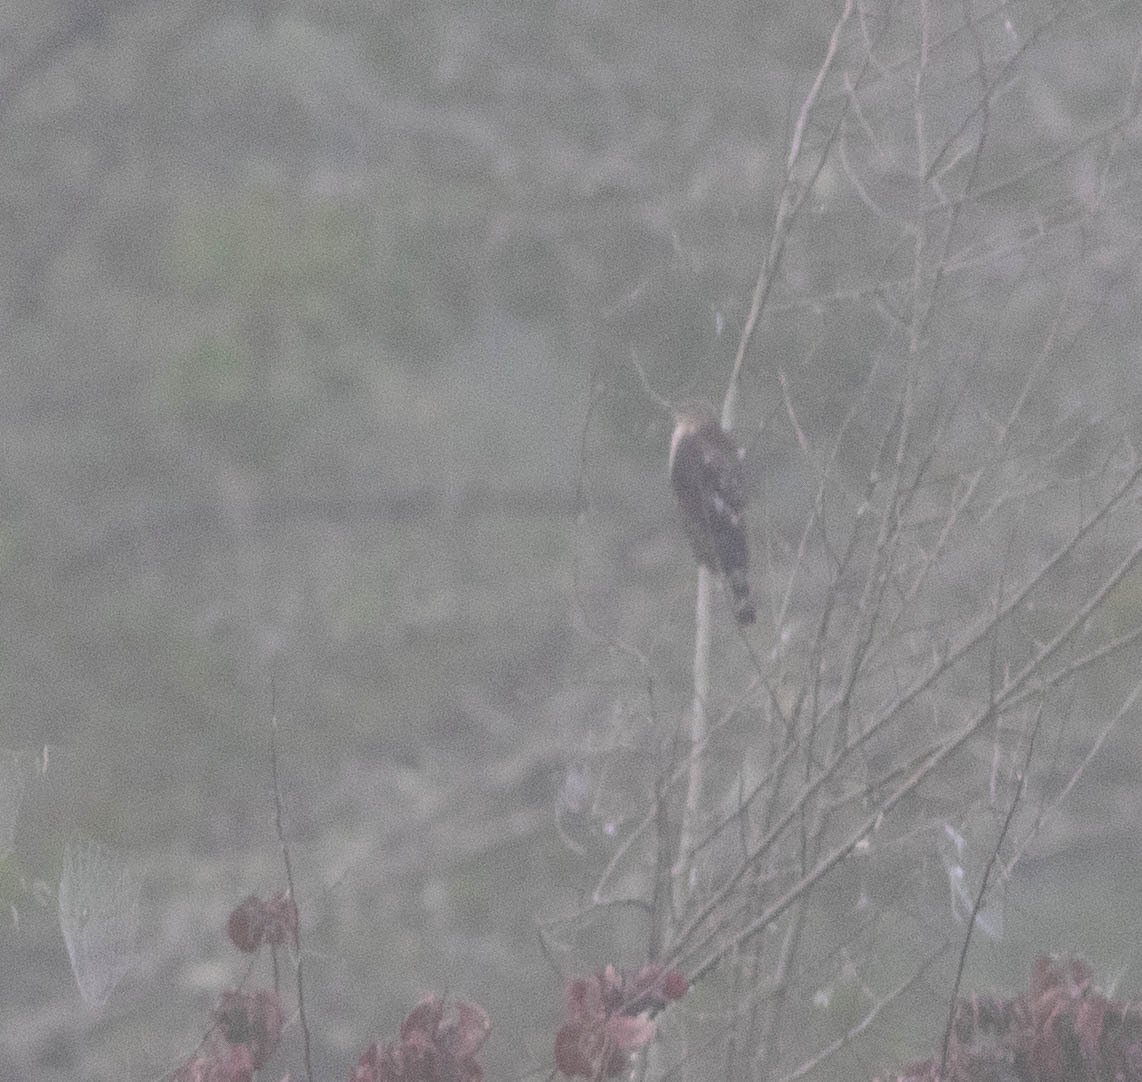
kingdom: Animalia
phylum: Chordata
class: Aves
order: Accipitriformes
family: Accipitridae
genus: Accipiter
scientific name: Accipiter striatus
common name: Sharp-shinned hawk
